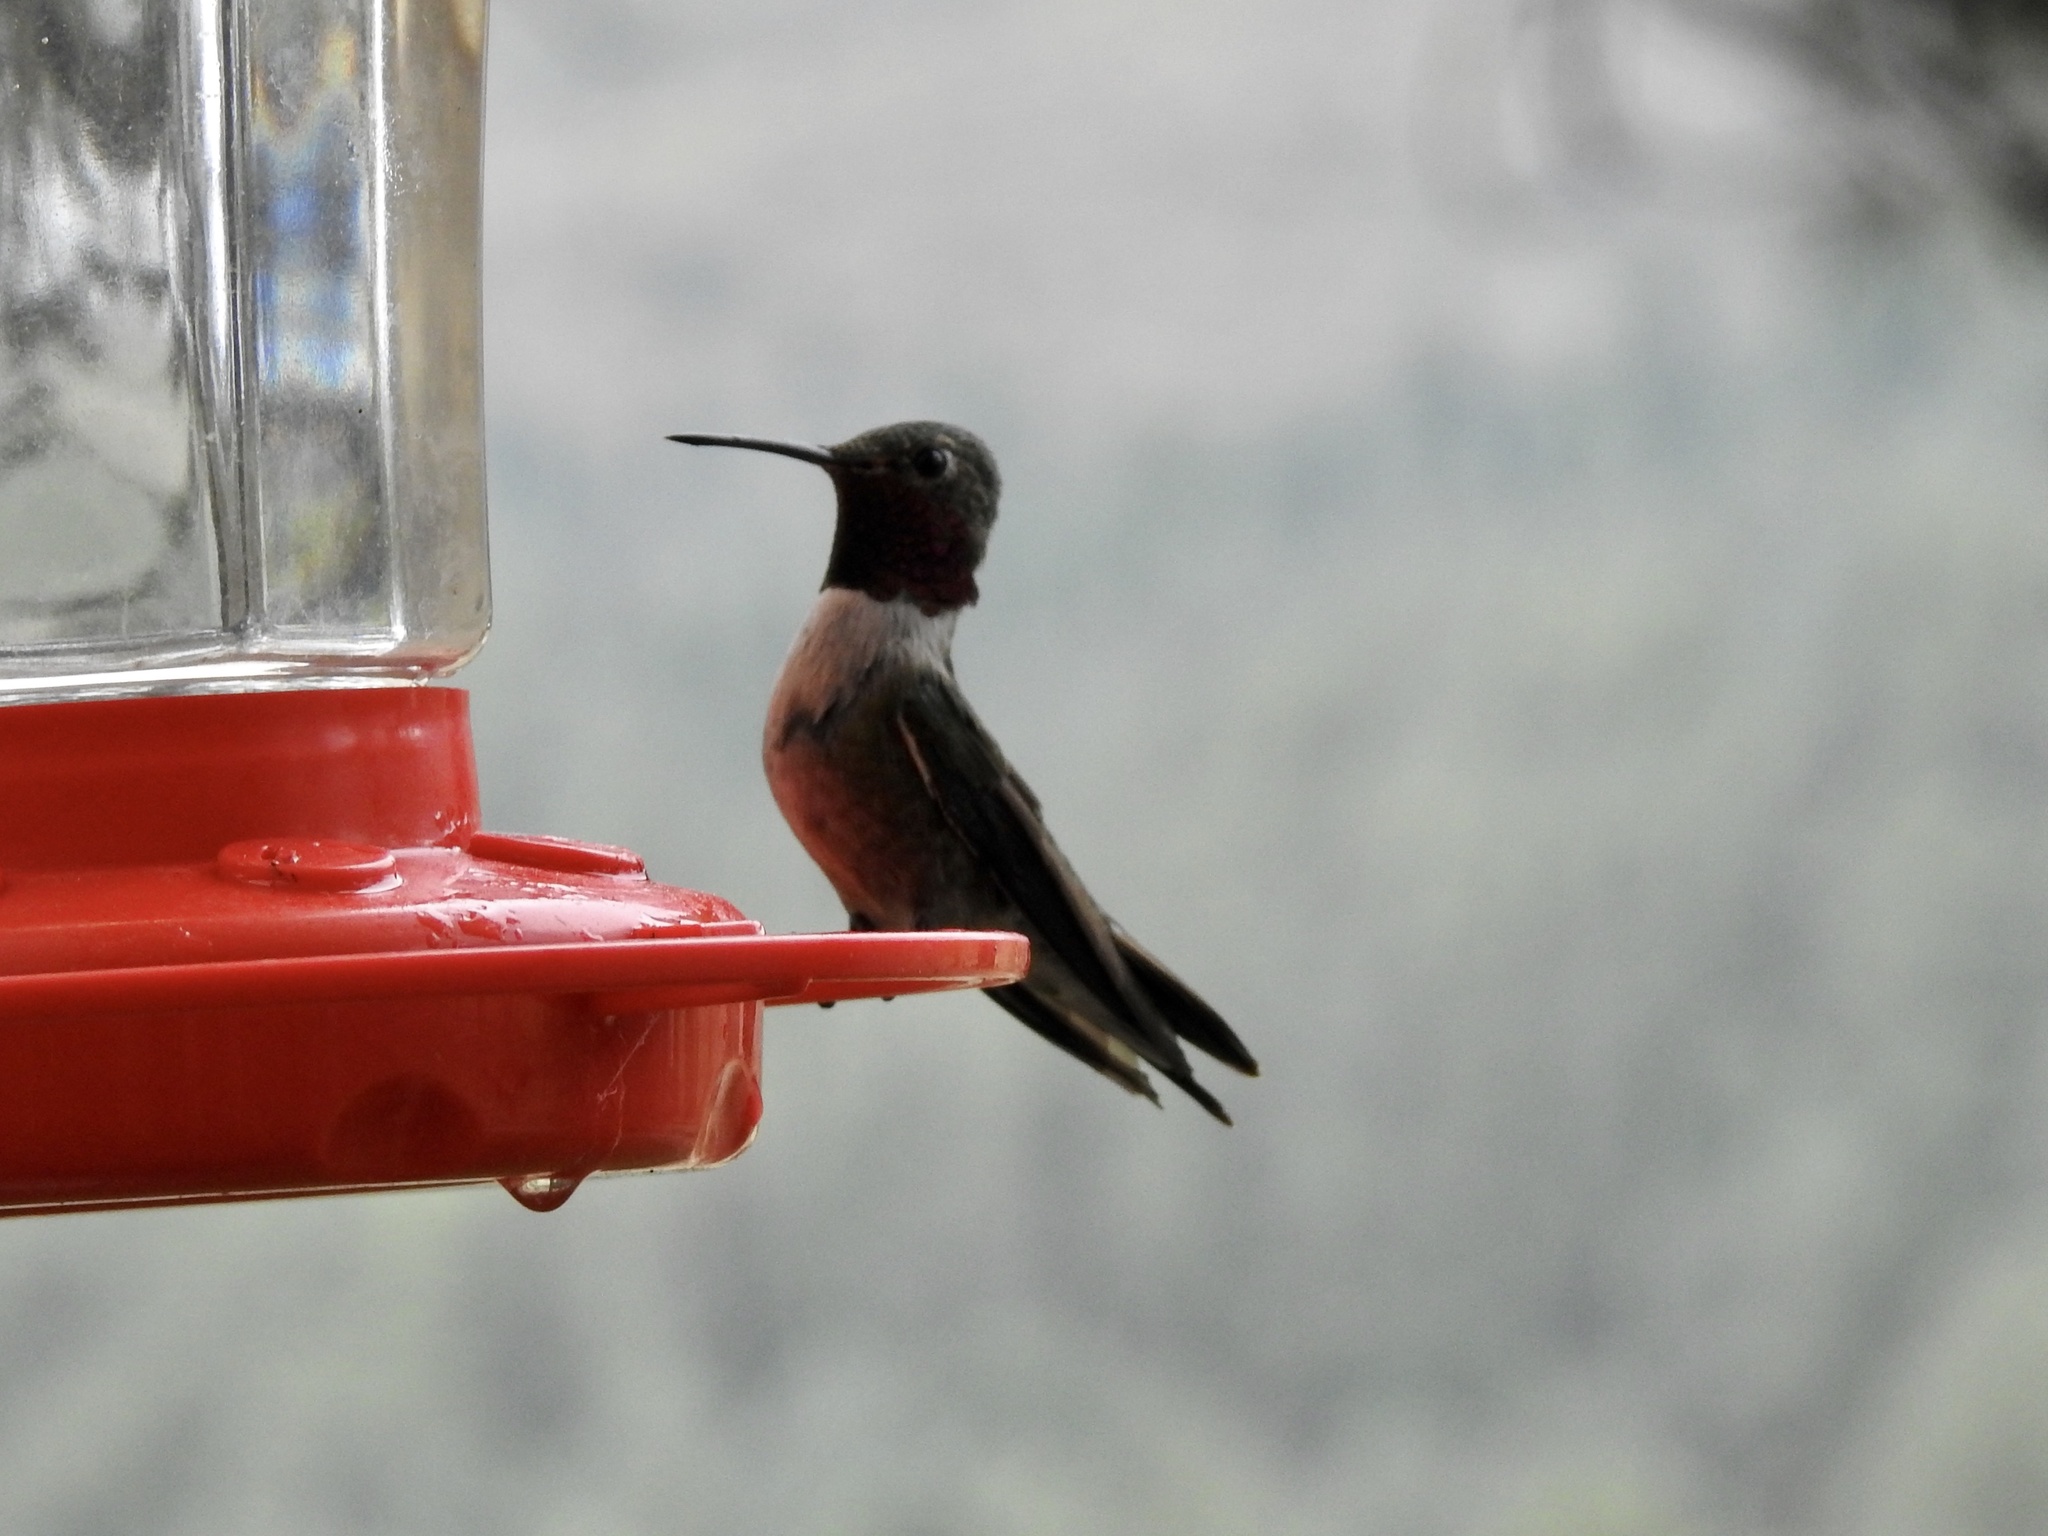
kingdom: Animalia
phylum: Chordata
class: Aves
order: Apodiformes
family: Trochilidae
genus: Selasphorus
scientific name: Selasphorus platycercus
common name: Broad-tailed hummingbird
